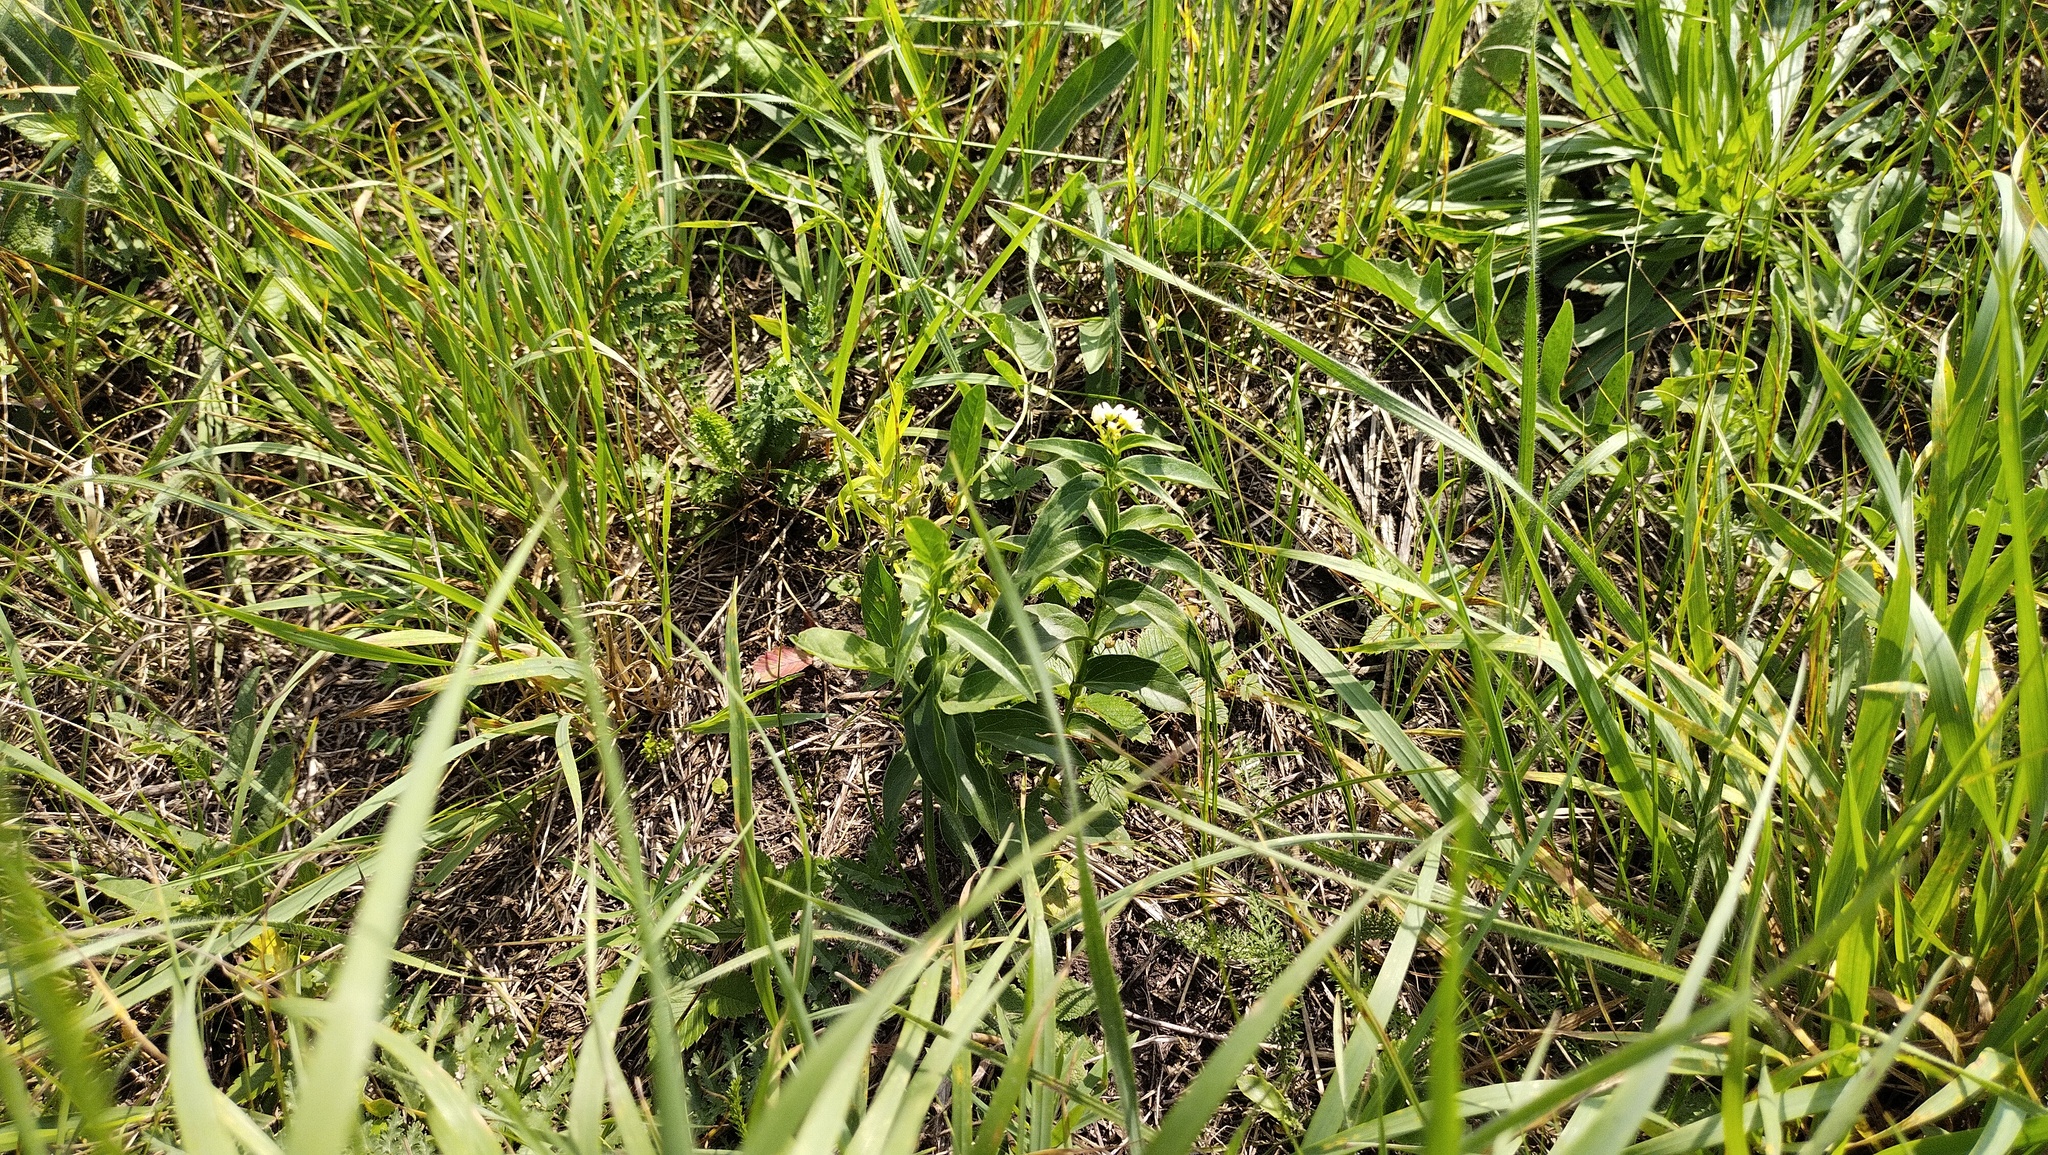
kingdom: Plantae
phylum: Tracheophyta
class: Magnoliopsida
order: Gentianales
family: Apocynaceae
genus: Vincetoxicum
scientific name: Vincetoxicum hirundinaria
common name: White swallowwort
